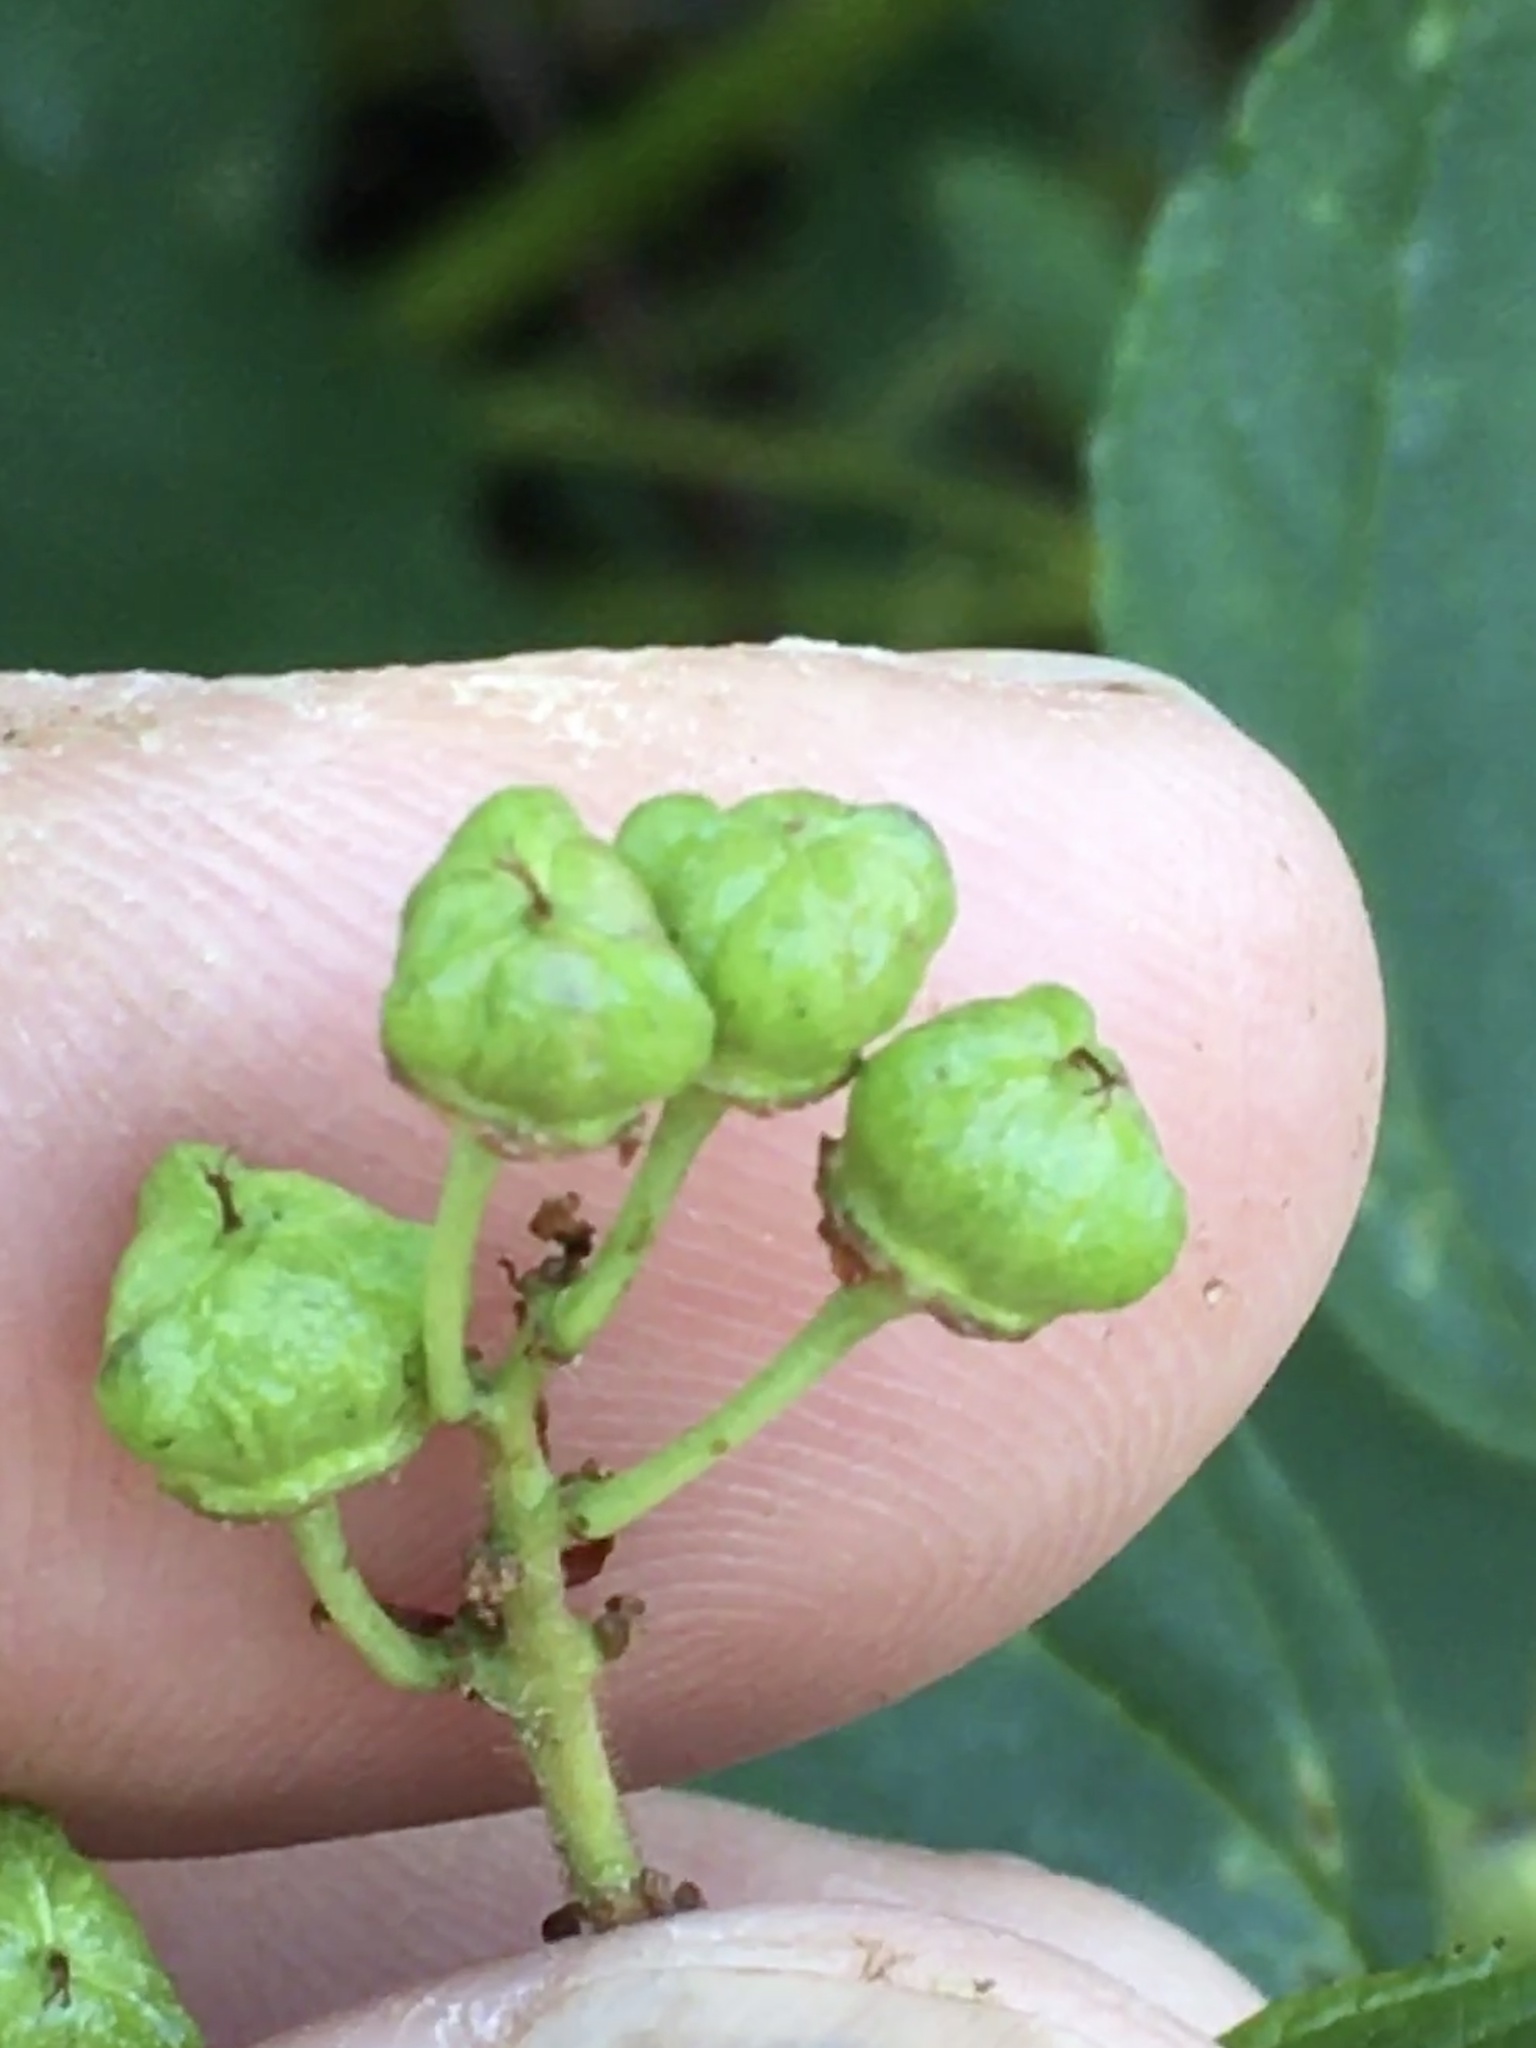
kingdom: Plantae
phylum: Tracheophyta
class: Magnoliopsida
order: Rosales
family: Rhamnaceae
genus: Ceanothus
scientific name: Ceanothus americanus
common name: Redroot
